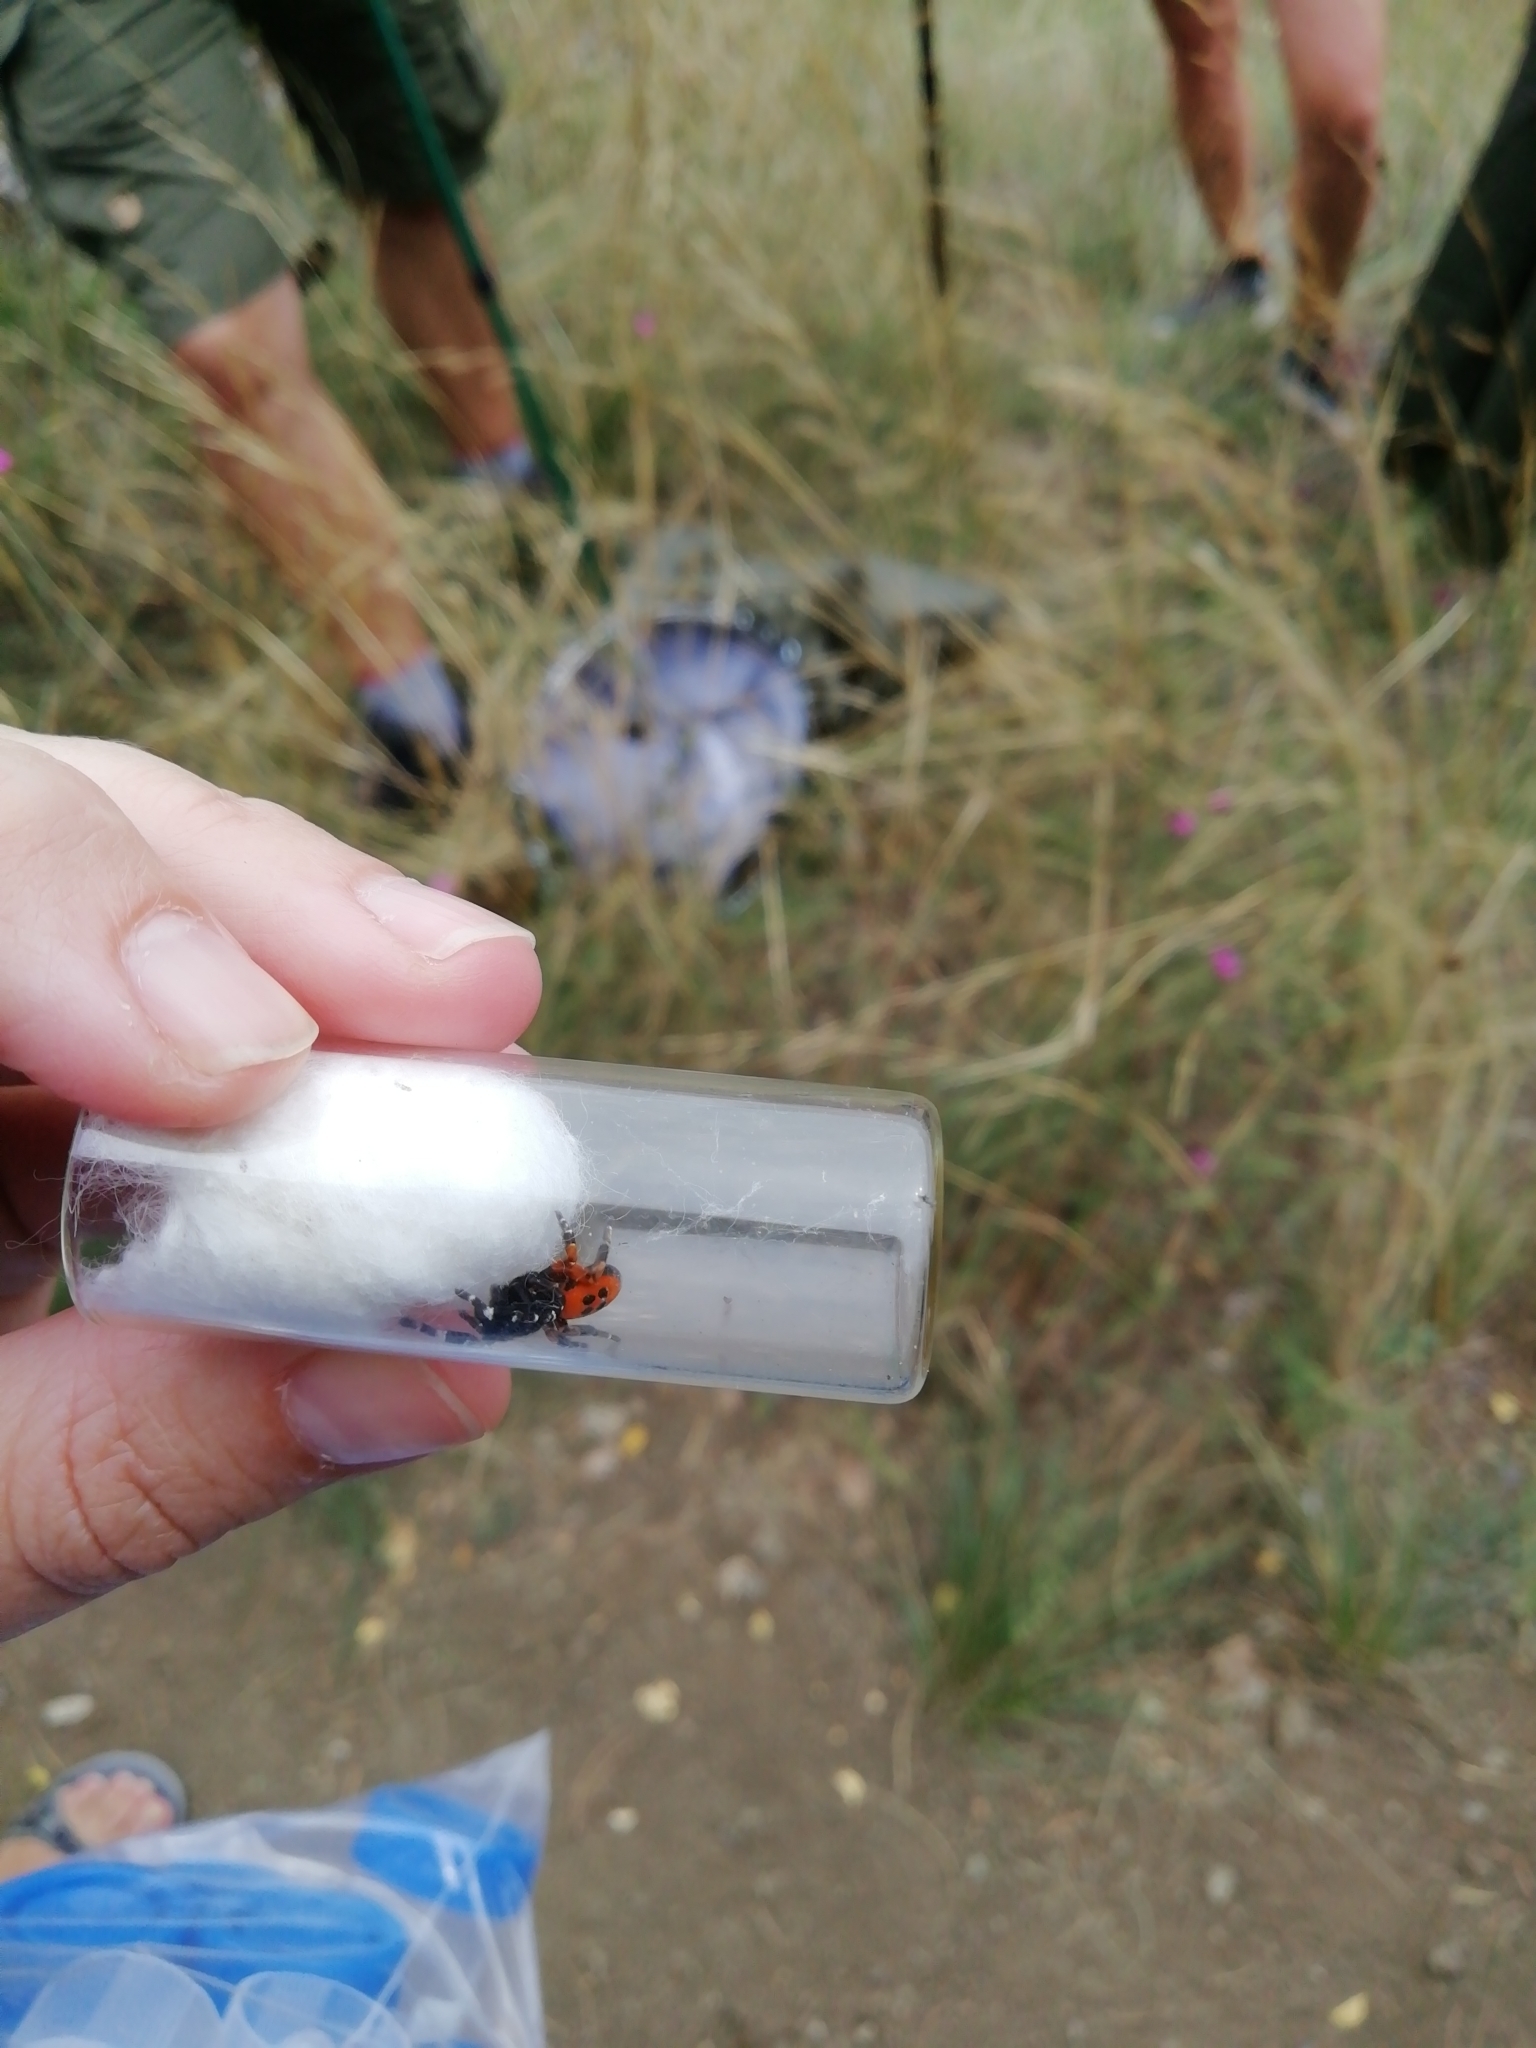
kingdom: Animalia
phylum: Arthropoda
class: Arachnida
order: Araneae
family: Eresidae
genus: Eresus
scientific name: Eresus kollari
